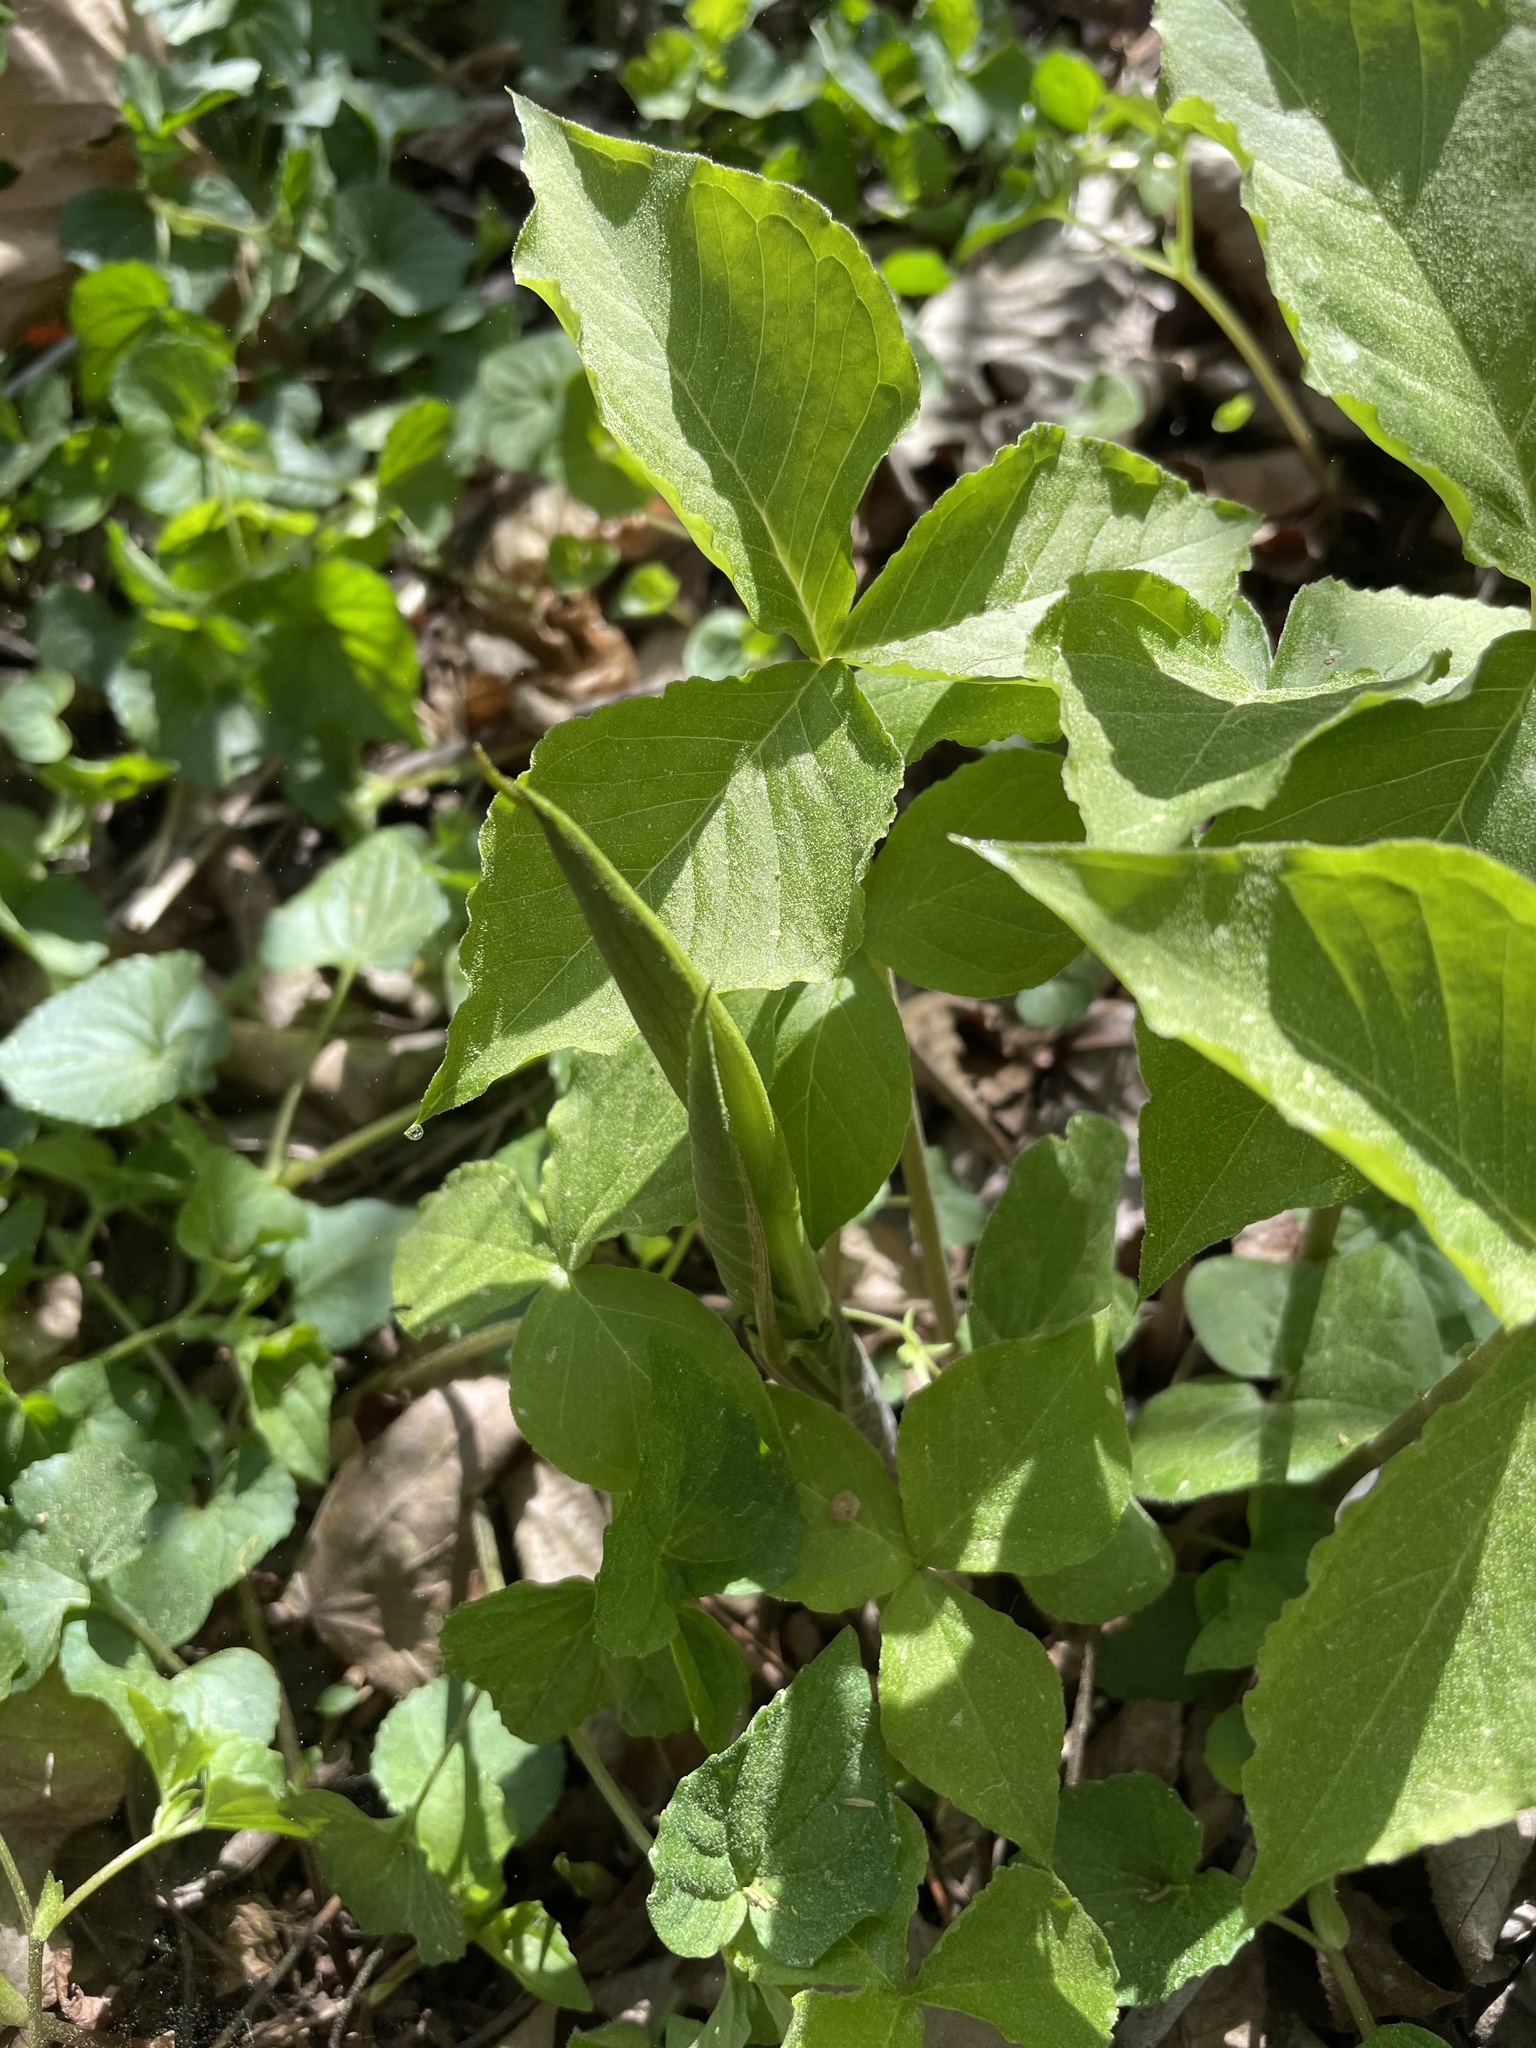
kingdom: Plantae
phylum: Tracheophyta
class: Liliopsida
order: Alismatales
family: Araceae
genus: Arisaema
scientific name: Arisaema triphyllum
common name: Jack-in-the-pulpit
